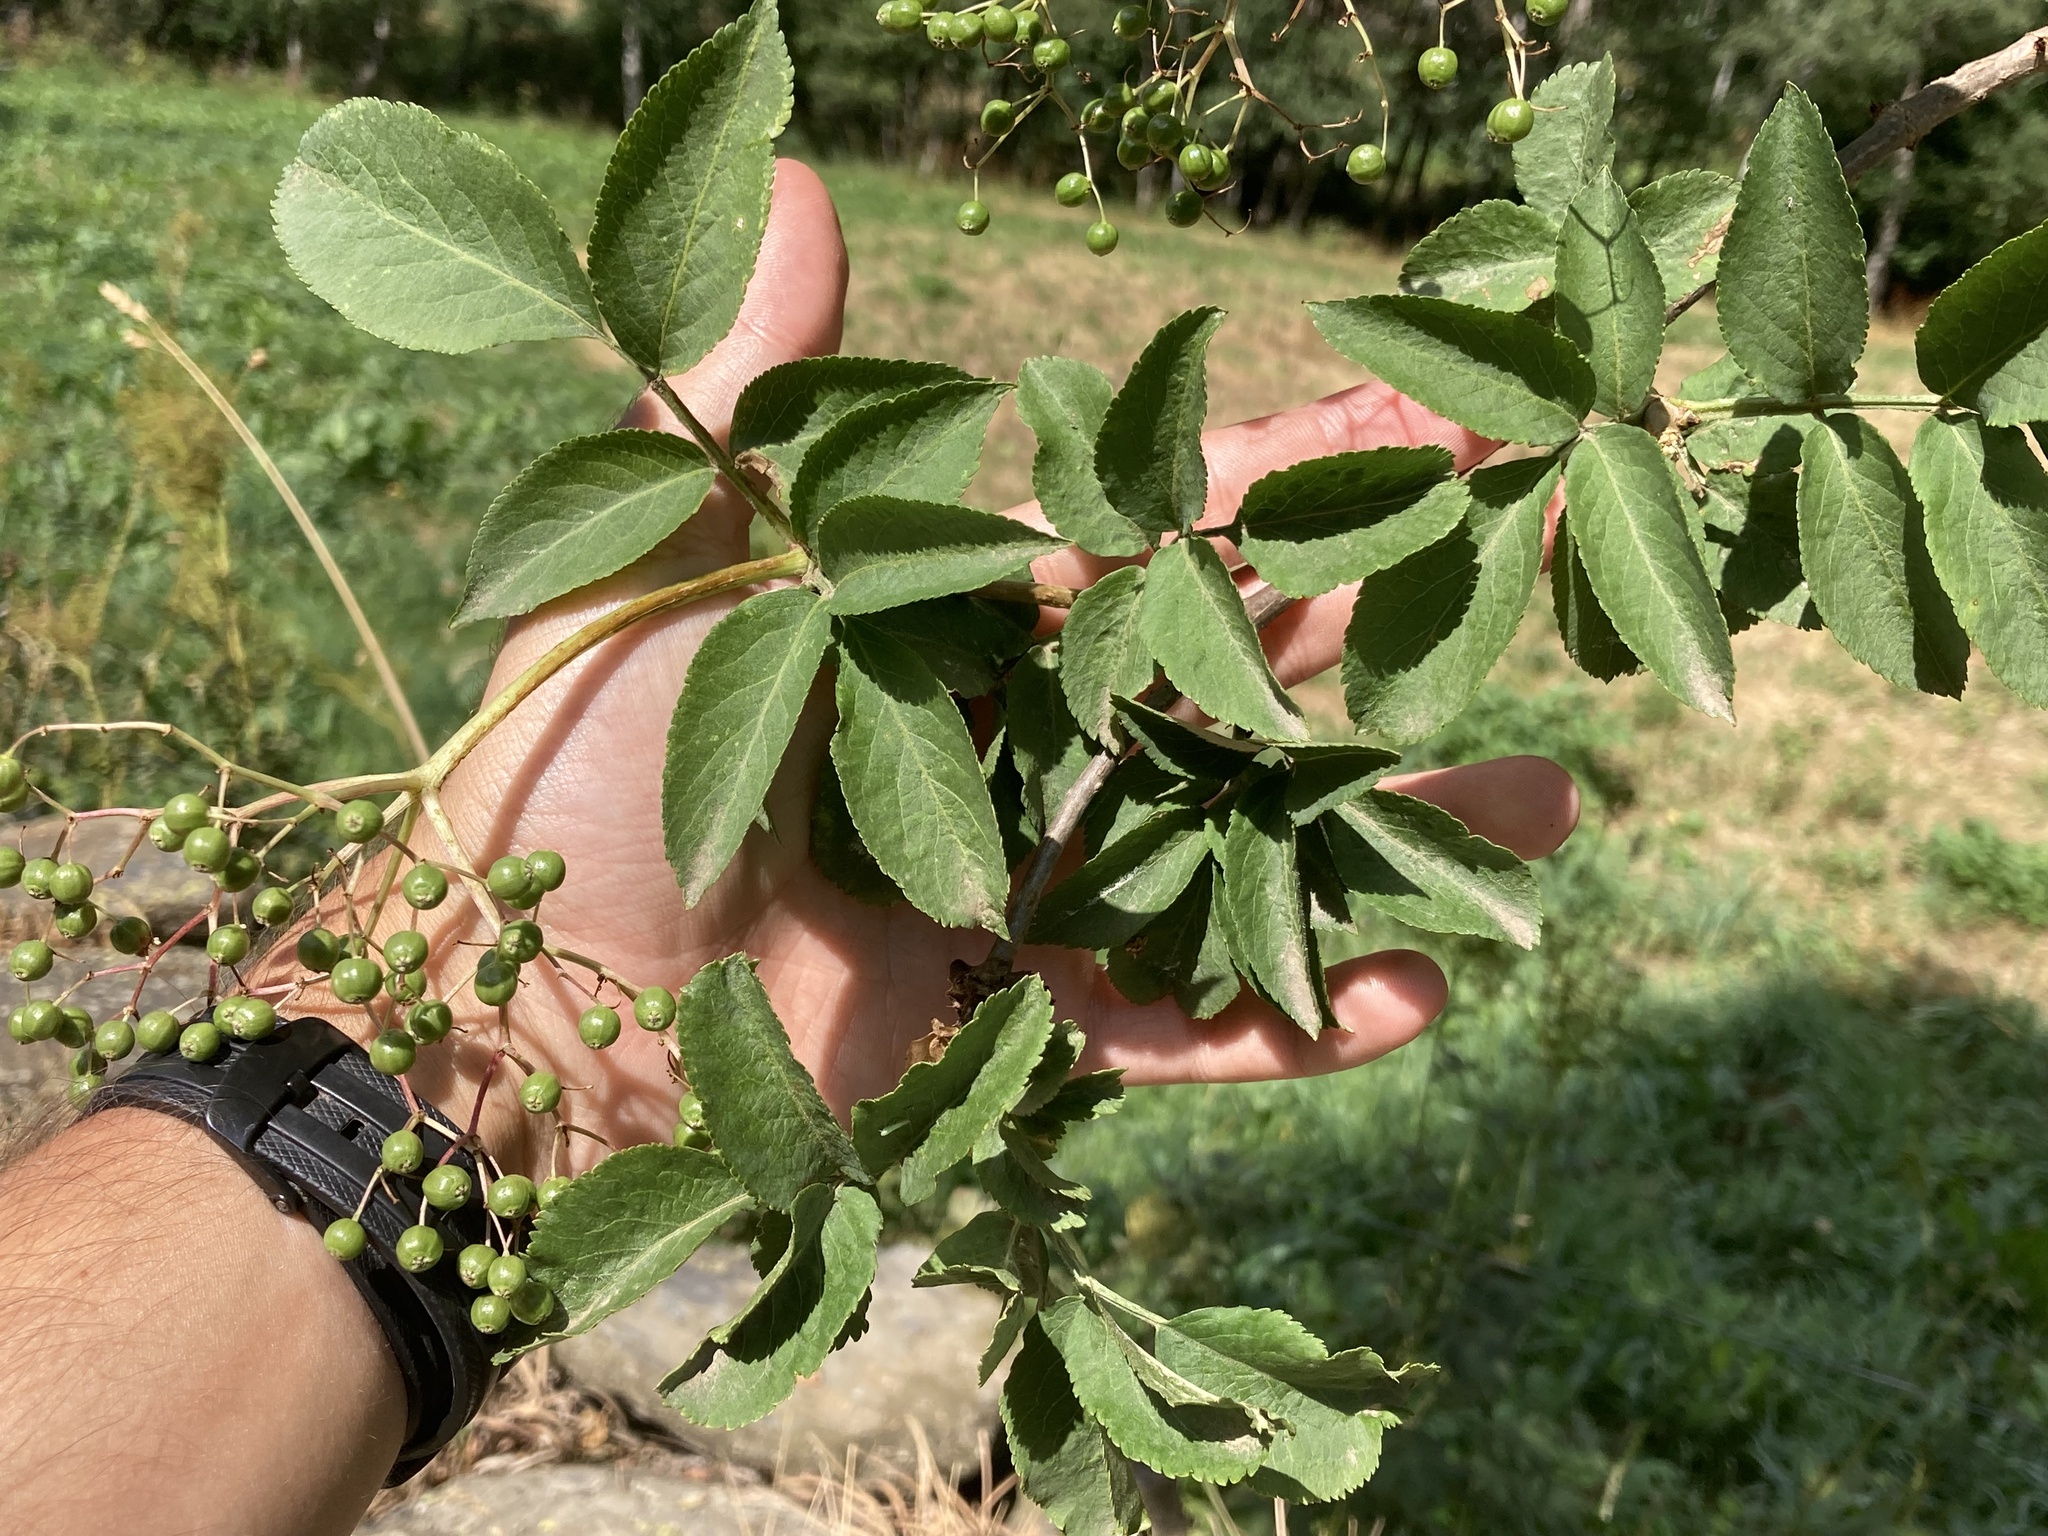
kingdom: Plantae
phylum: Tracheophyta
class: Magnoliopsida
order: Dipsacales
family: Viburnaceae
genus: Sambucus
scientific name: Sambucus nigra
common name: Elder
